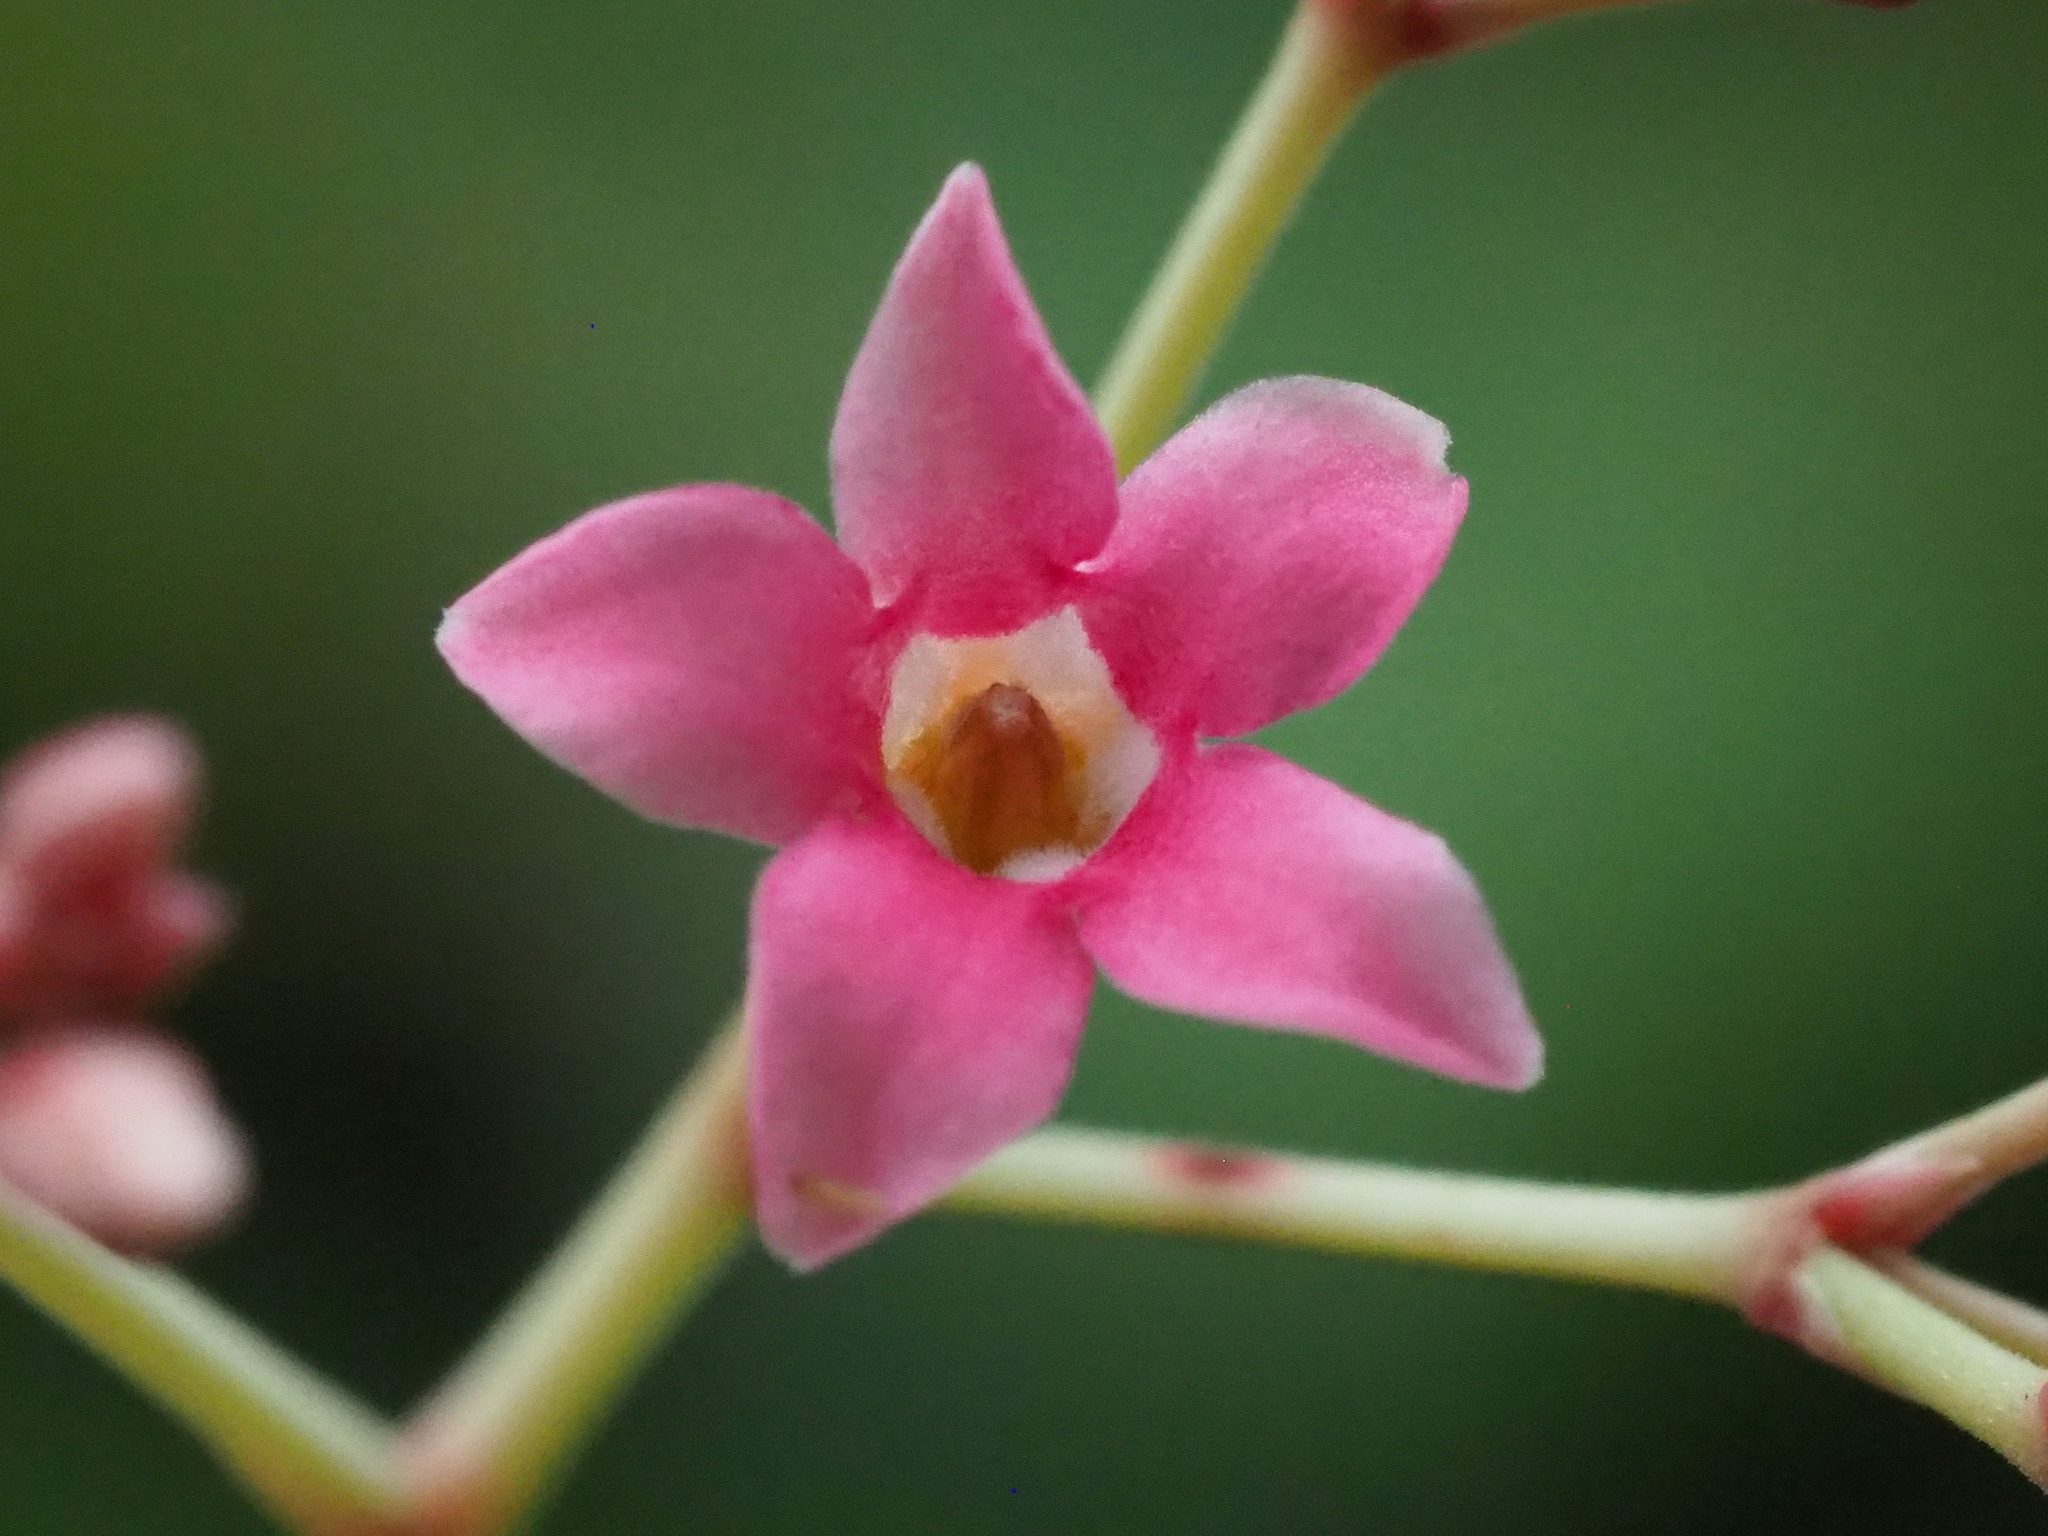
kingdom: Plantae
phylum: Tracheophyta
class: Magnoliopsida
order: Gentianales
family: Apocynaceae
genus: Urceola
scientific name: Urceola rosea
